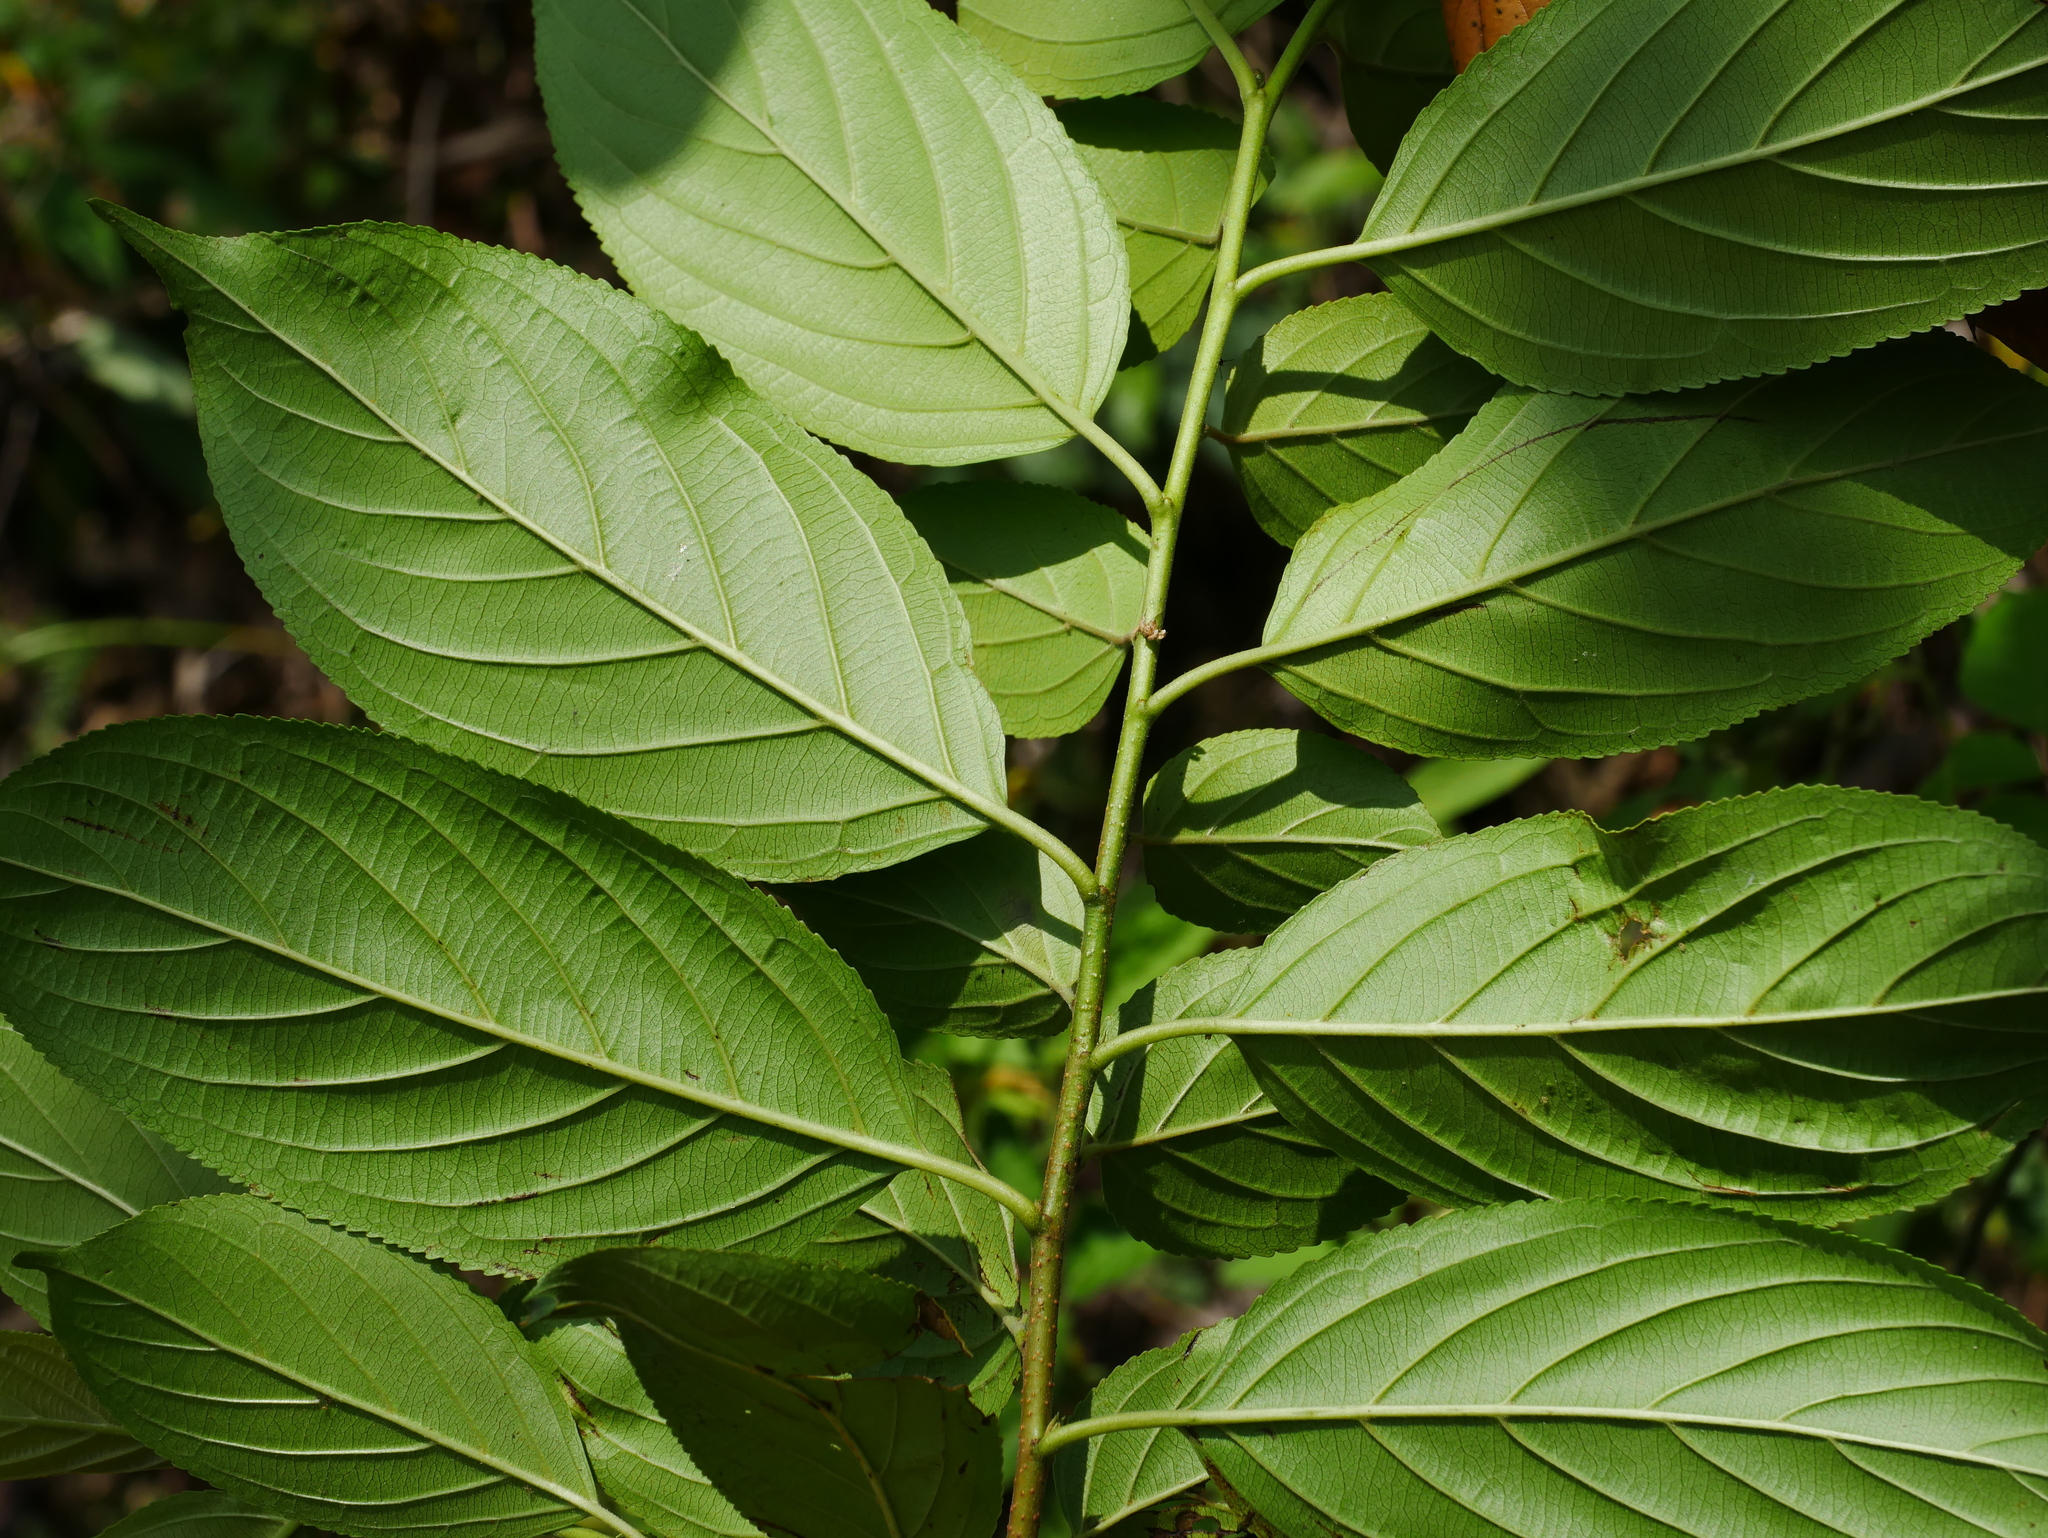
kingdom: Plantae
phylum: Tracheophyta
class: Magnoliopsida
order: Rosales
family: Rhamnaceae
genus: Rhamnus
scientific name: Rhamnus formosana
